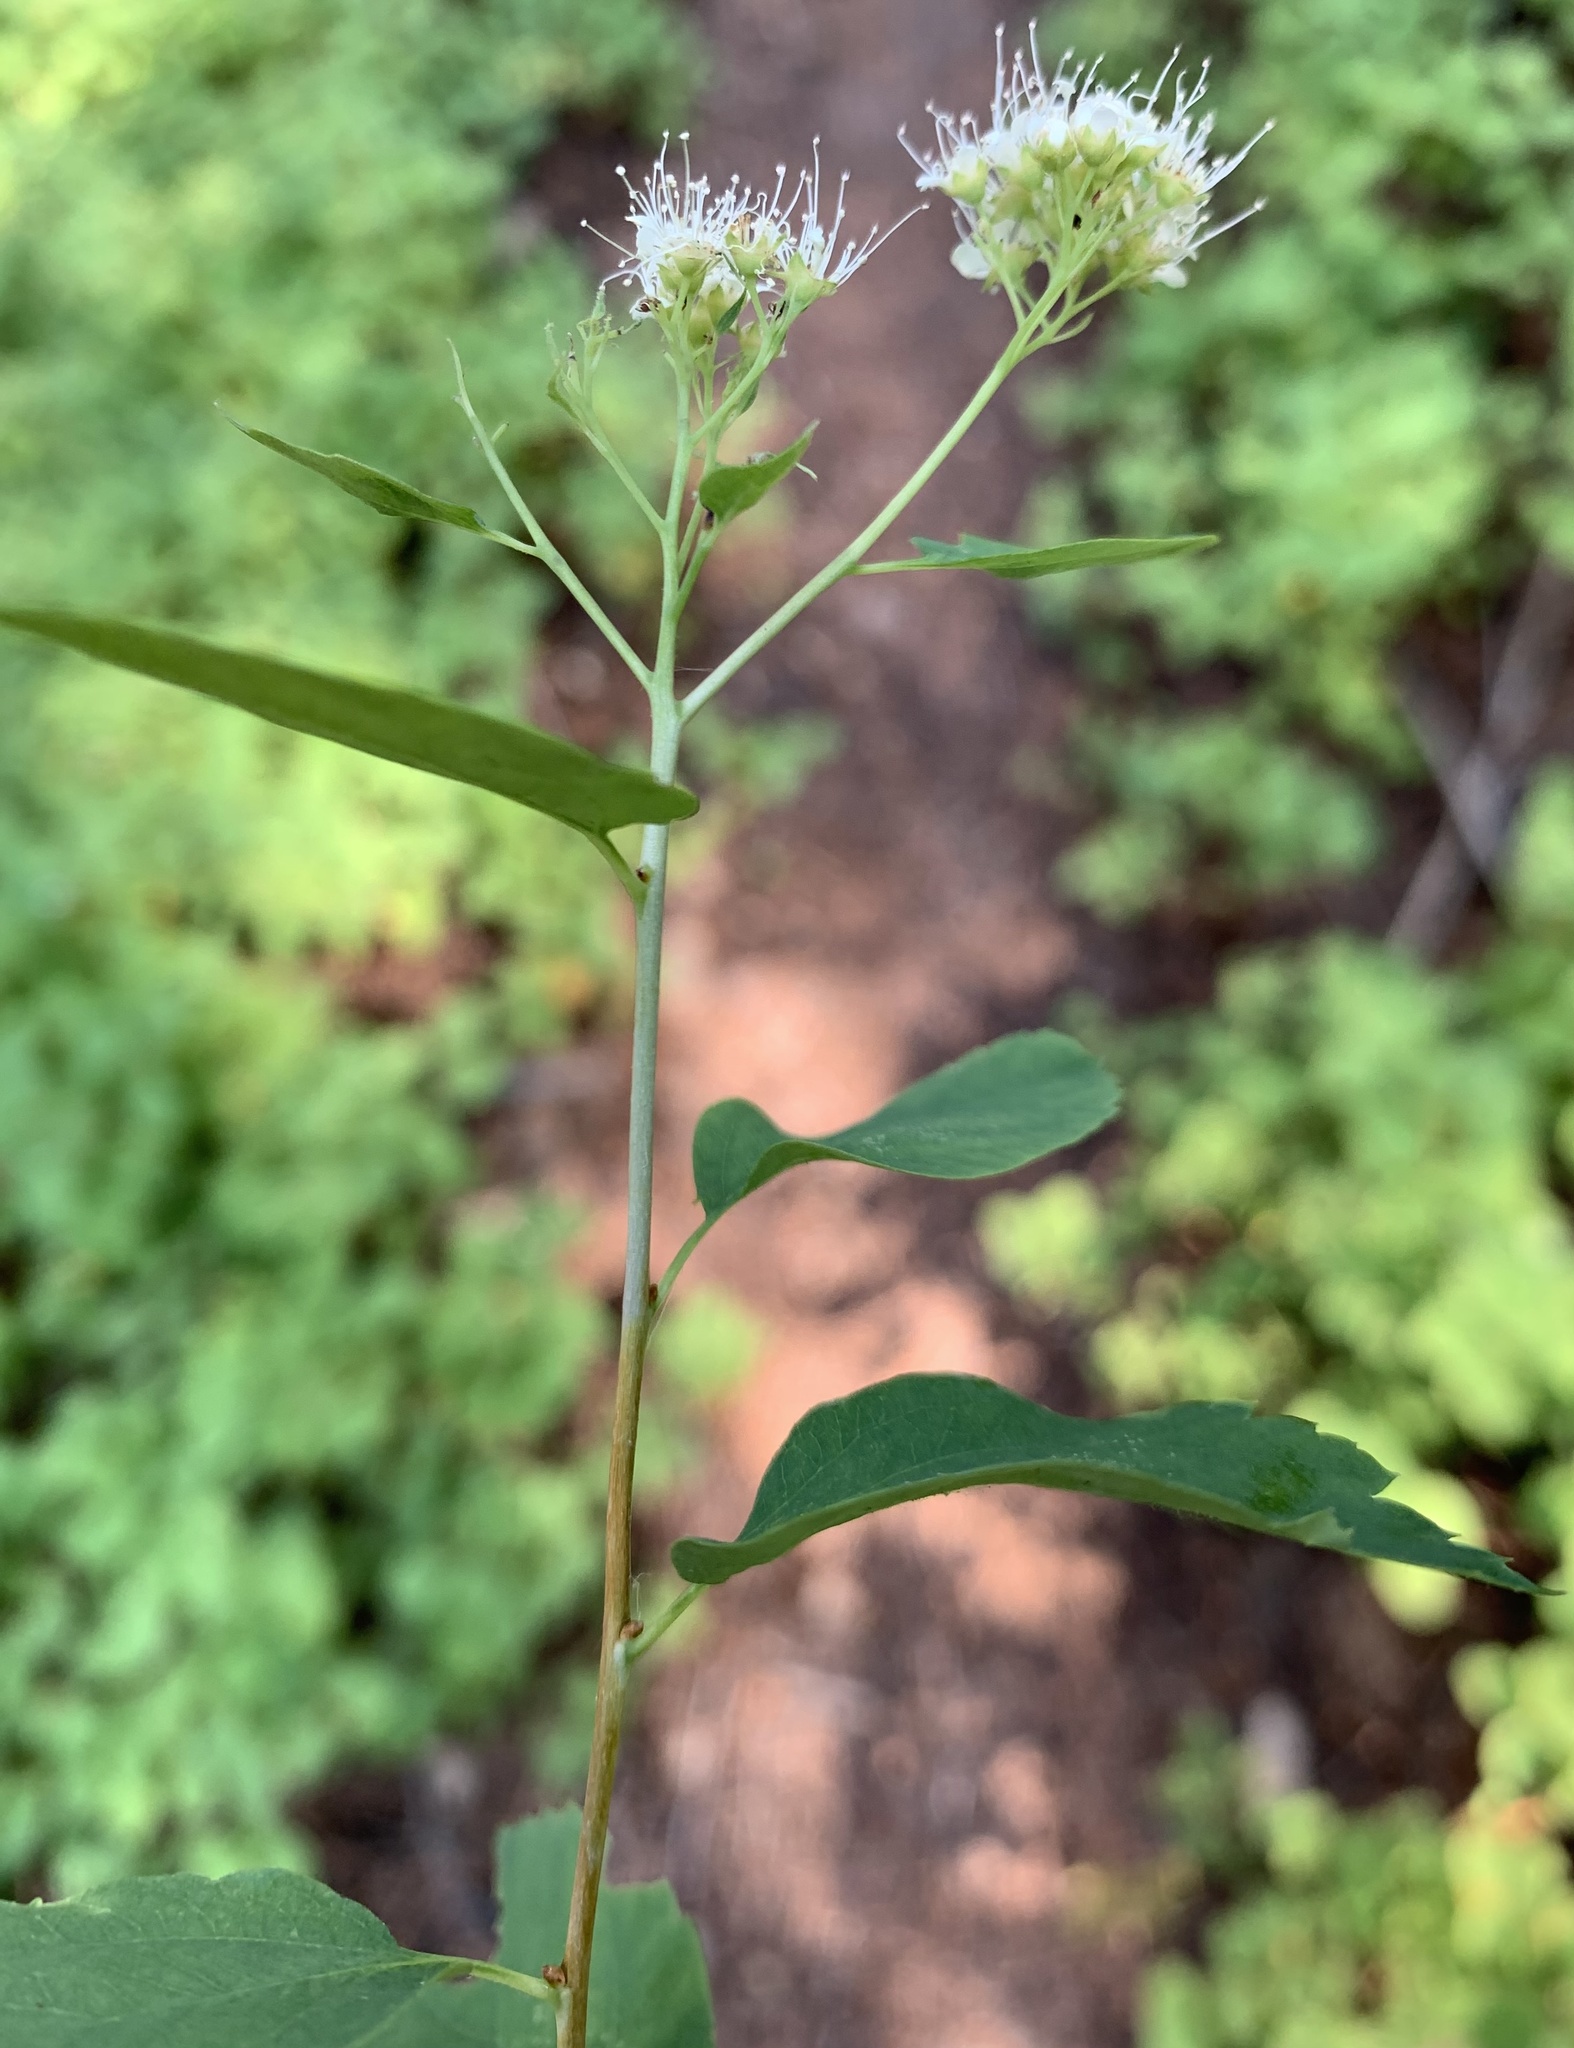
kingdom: Plantae
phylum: Tracheophyta
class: Magnoliopsida
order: Rosales
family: Rosaceae
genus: Spiraea
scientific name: Spiraea lucida
